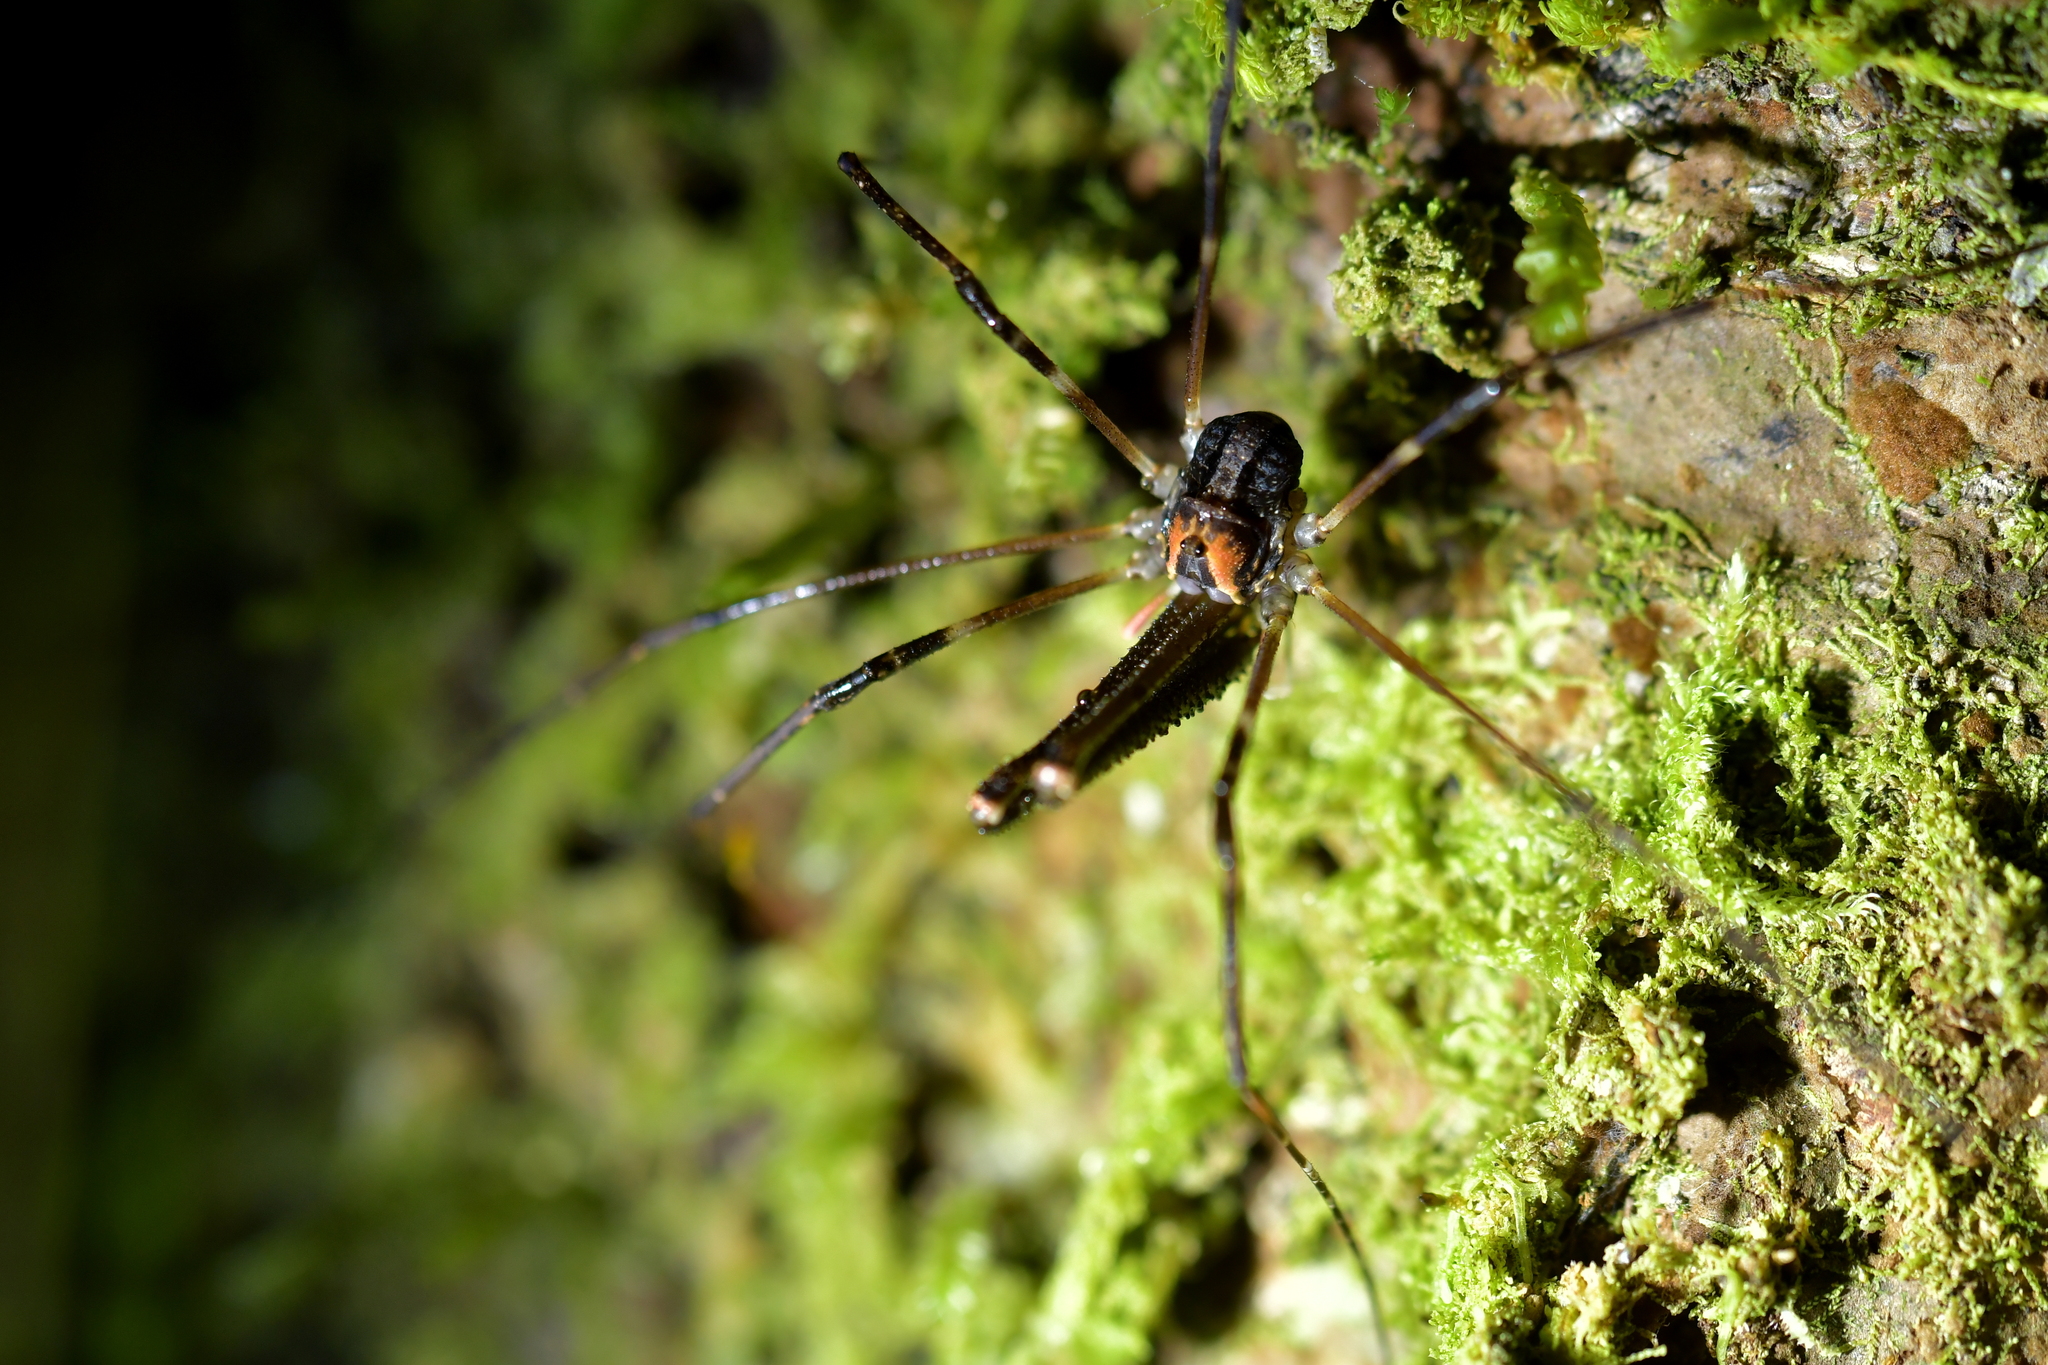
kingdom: Animalia
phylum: Arthropoda
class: Arachnida
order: Opiliones
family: Neopilionidae
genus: Forsteropsalis
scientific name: Forsteropsalis inconstans
